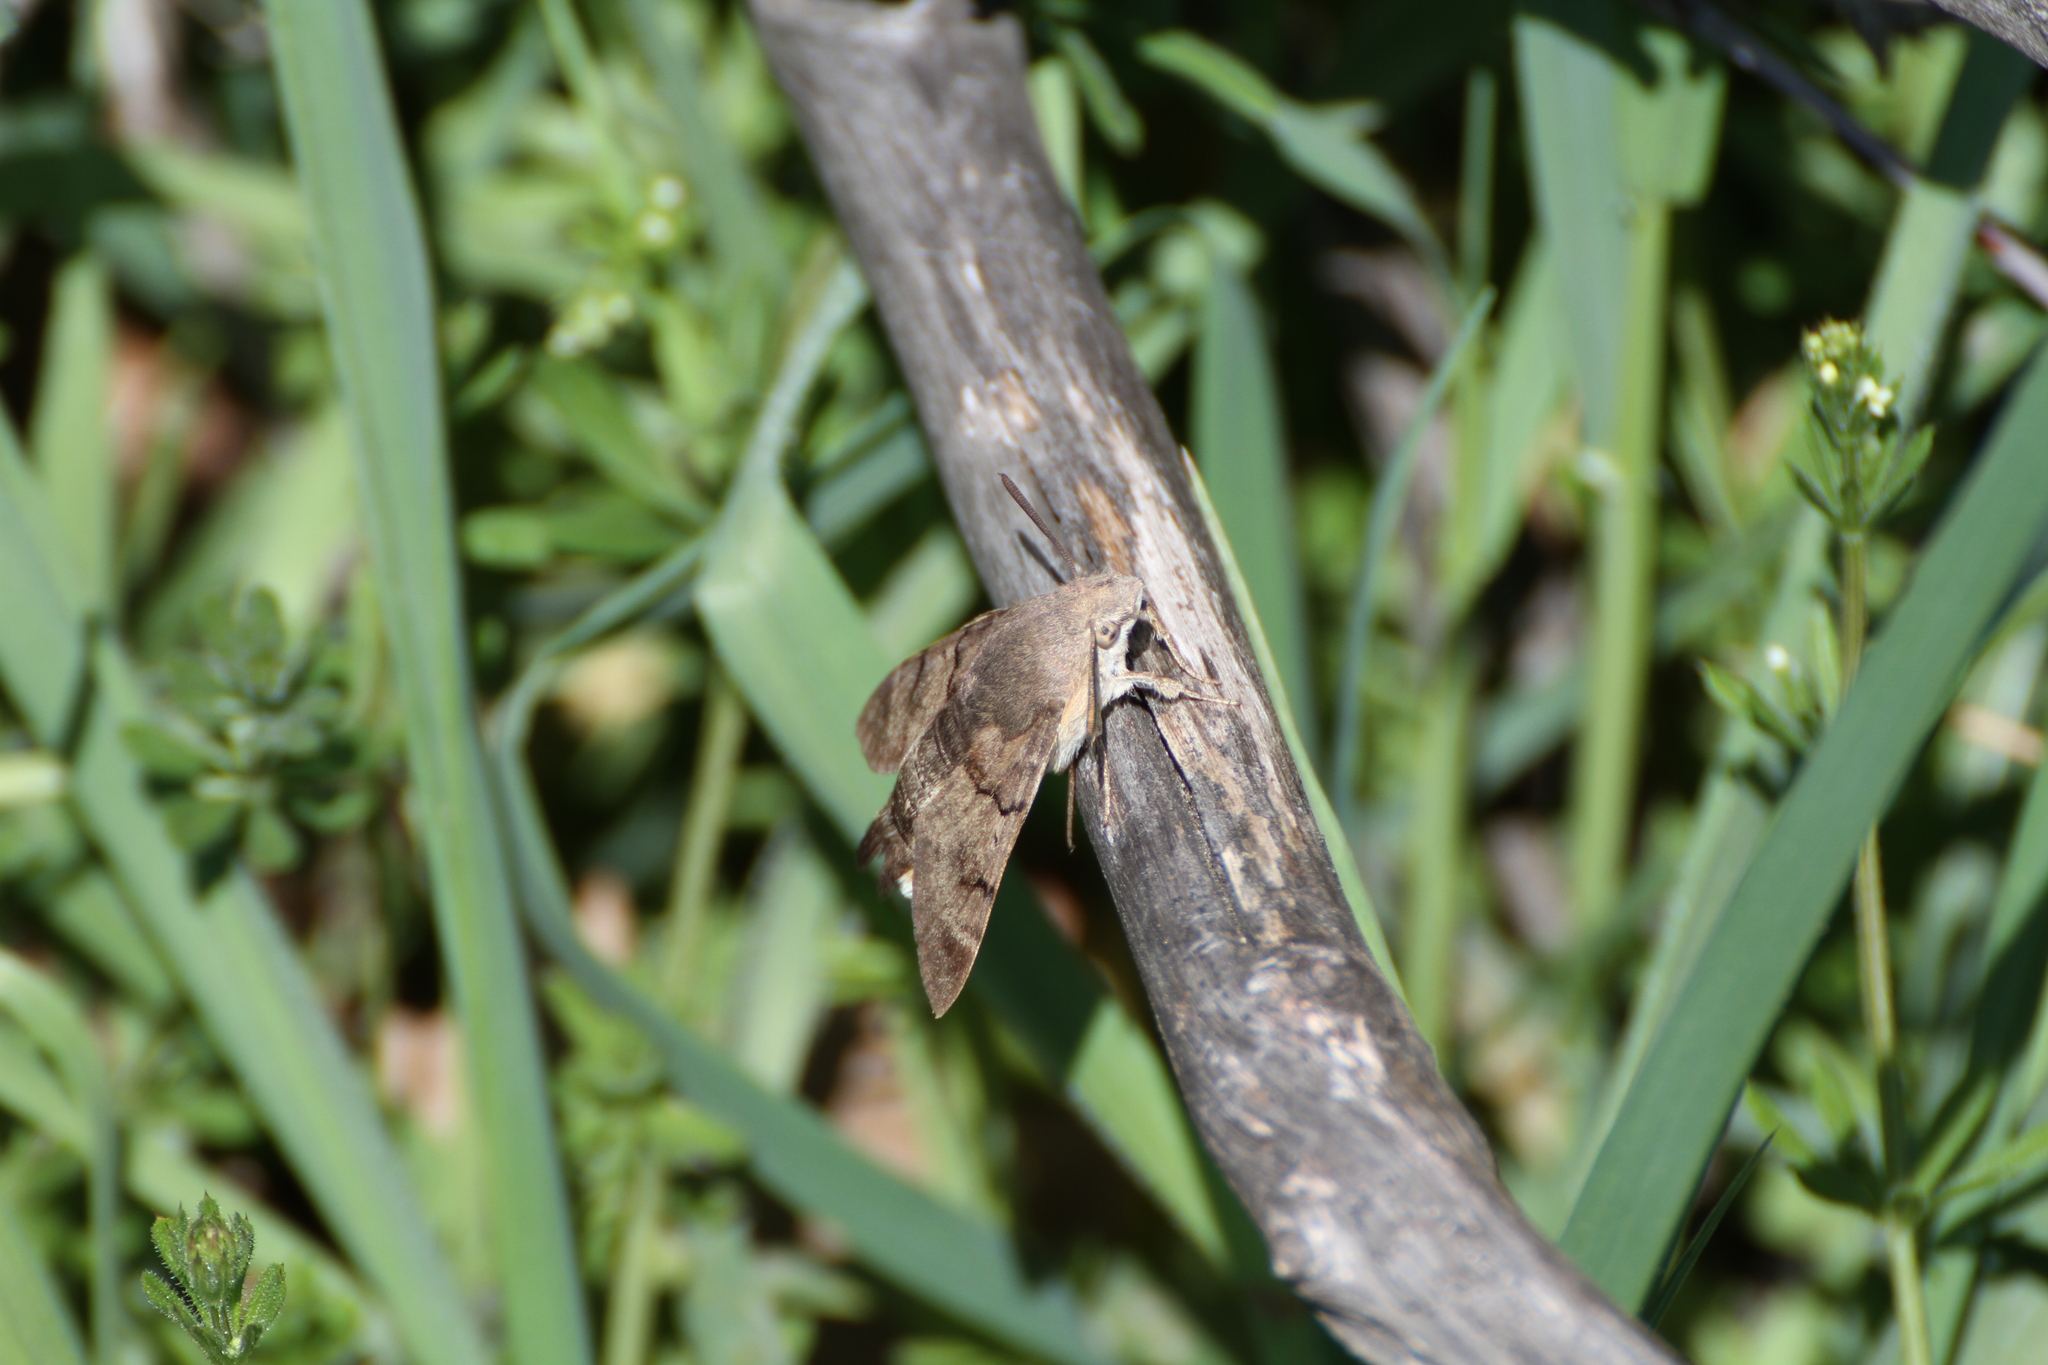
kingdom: Animalia
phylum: Arthropoda
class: Insecta
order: Lepidoptera
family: Sphingidae
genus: Macroglossum
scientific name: Macroglossum stellatarum
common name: Humming-bird hawk-moth
